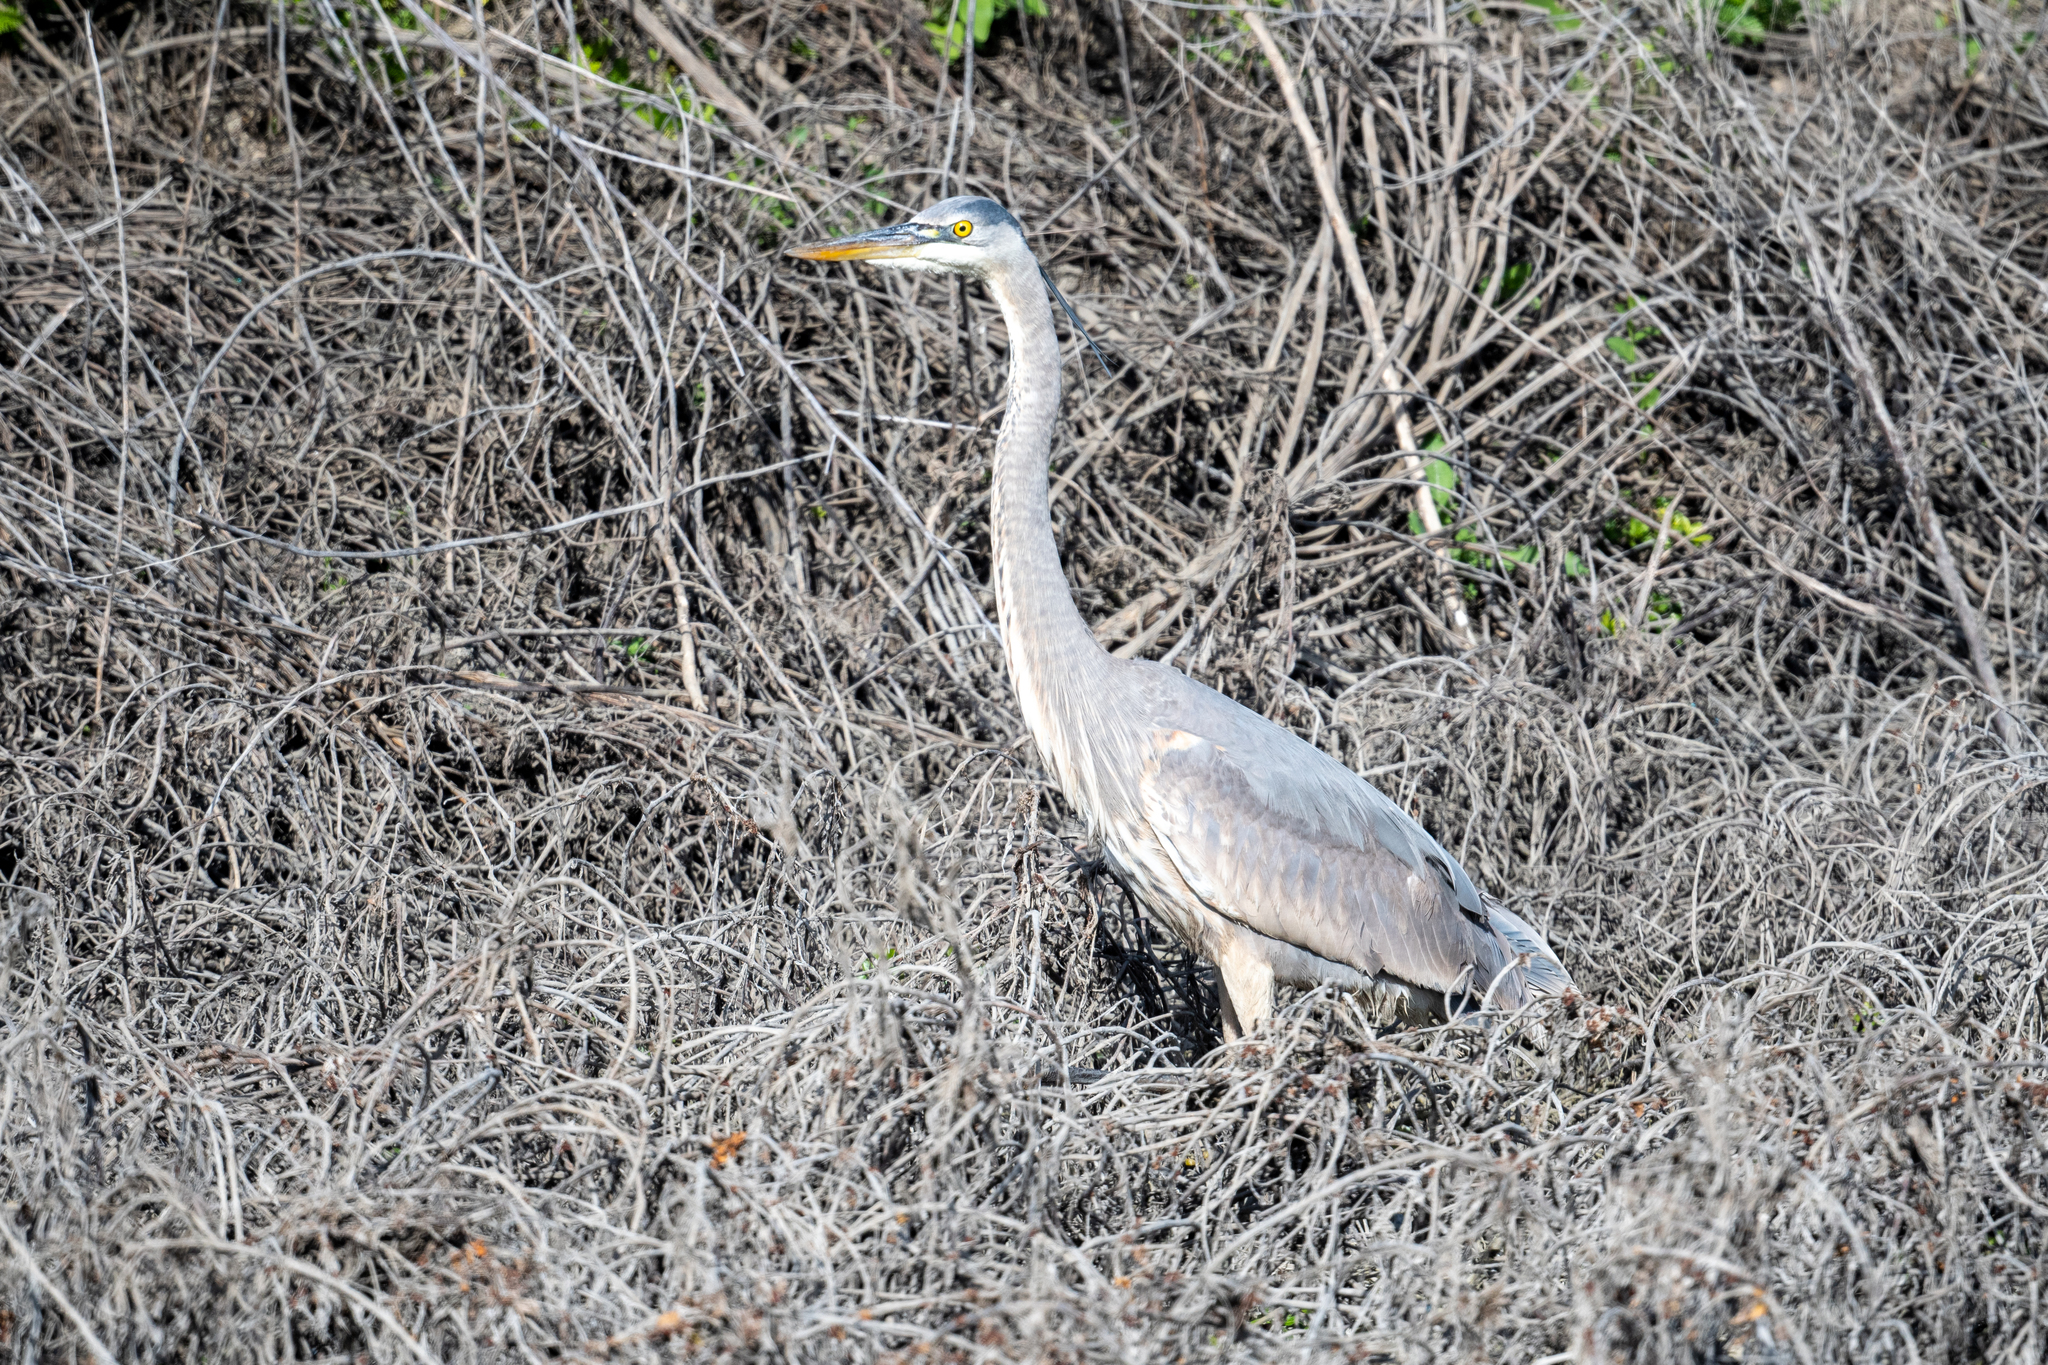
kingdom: Animalia
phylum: Chordata
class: Aves
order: Pelecaniformes
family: Ardeidae
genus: Ardea
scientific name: Ardea herodias
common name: Great blue heron
